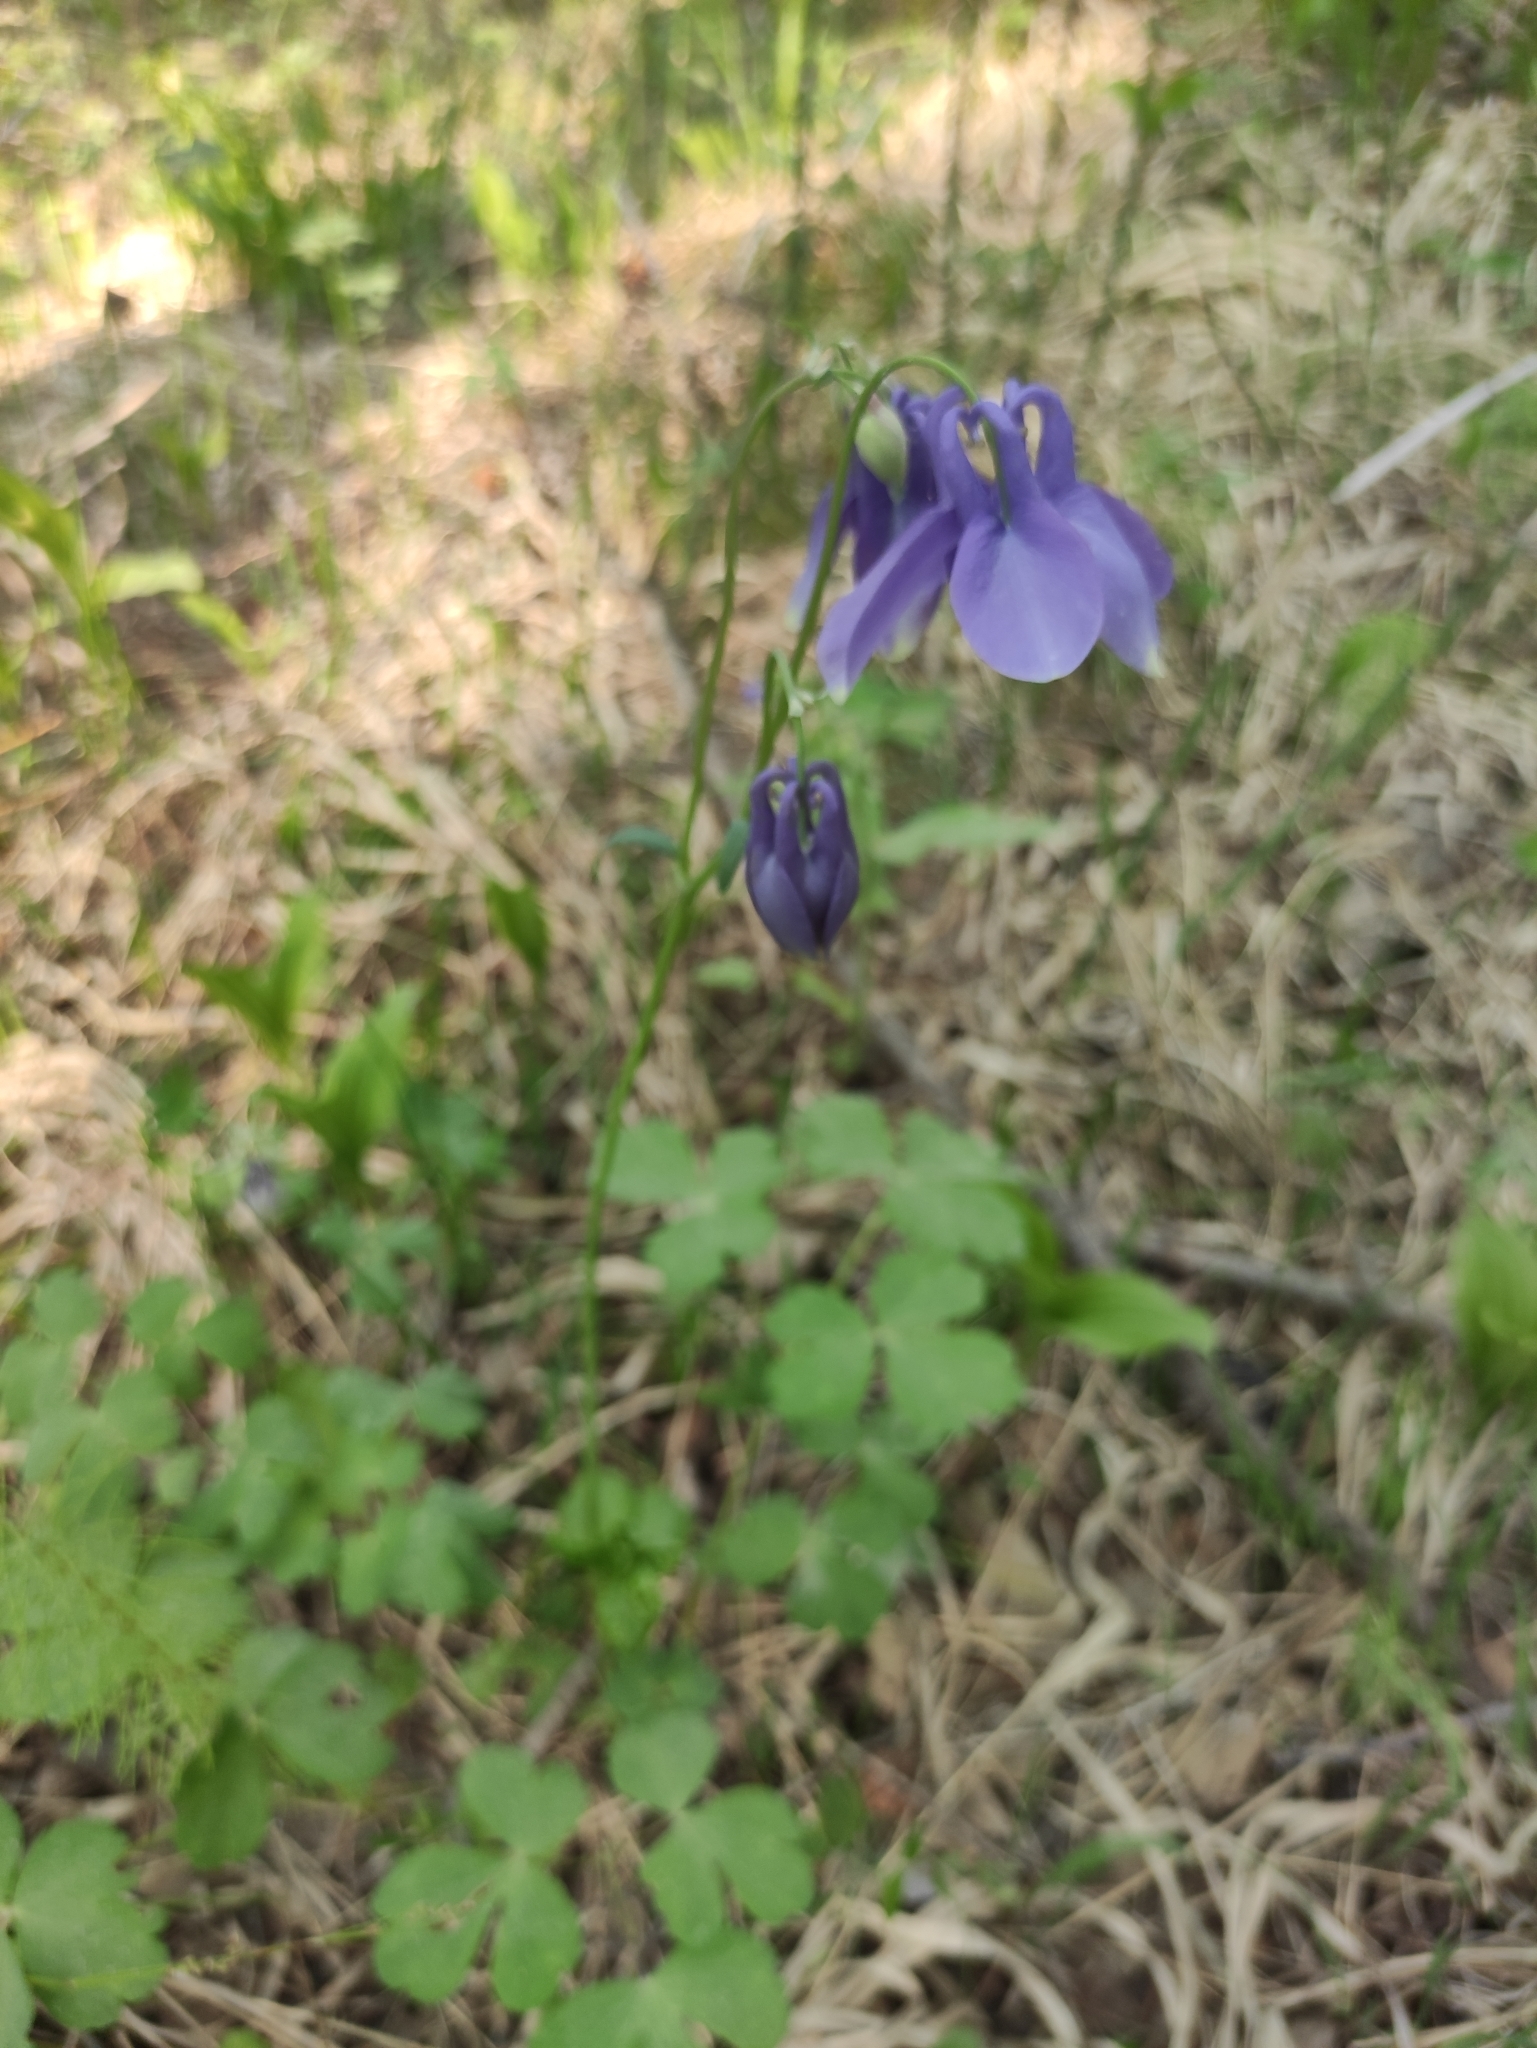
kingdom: Plantae
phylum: Tracheophyta
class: Magnoliopsida
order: Ranunculales
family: Ranunculaceae
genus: Aquilegia
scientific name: Aquilegia sibirica
